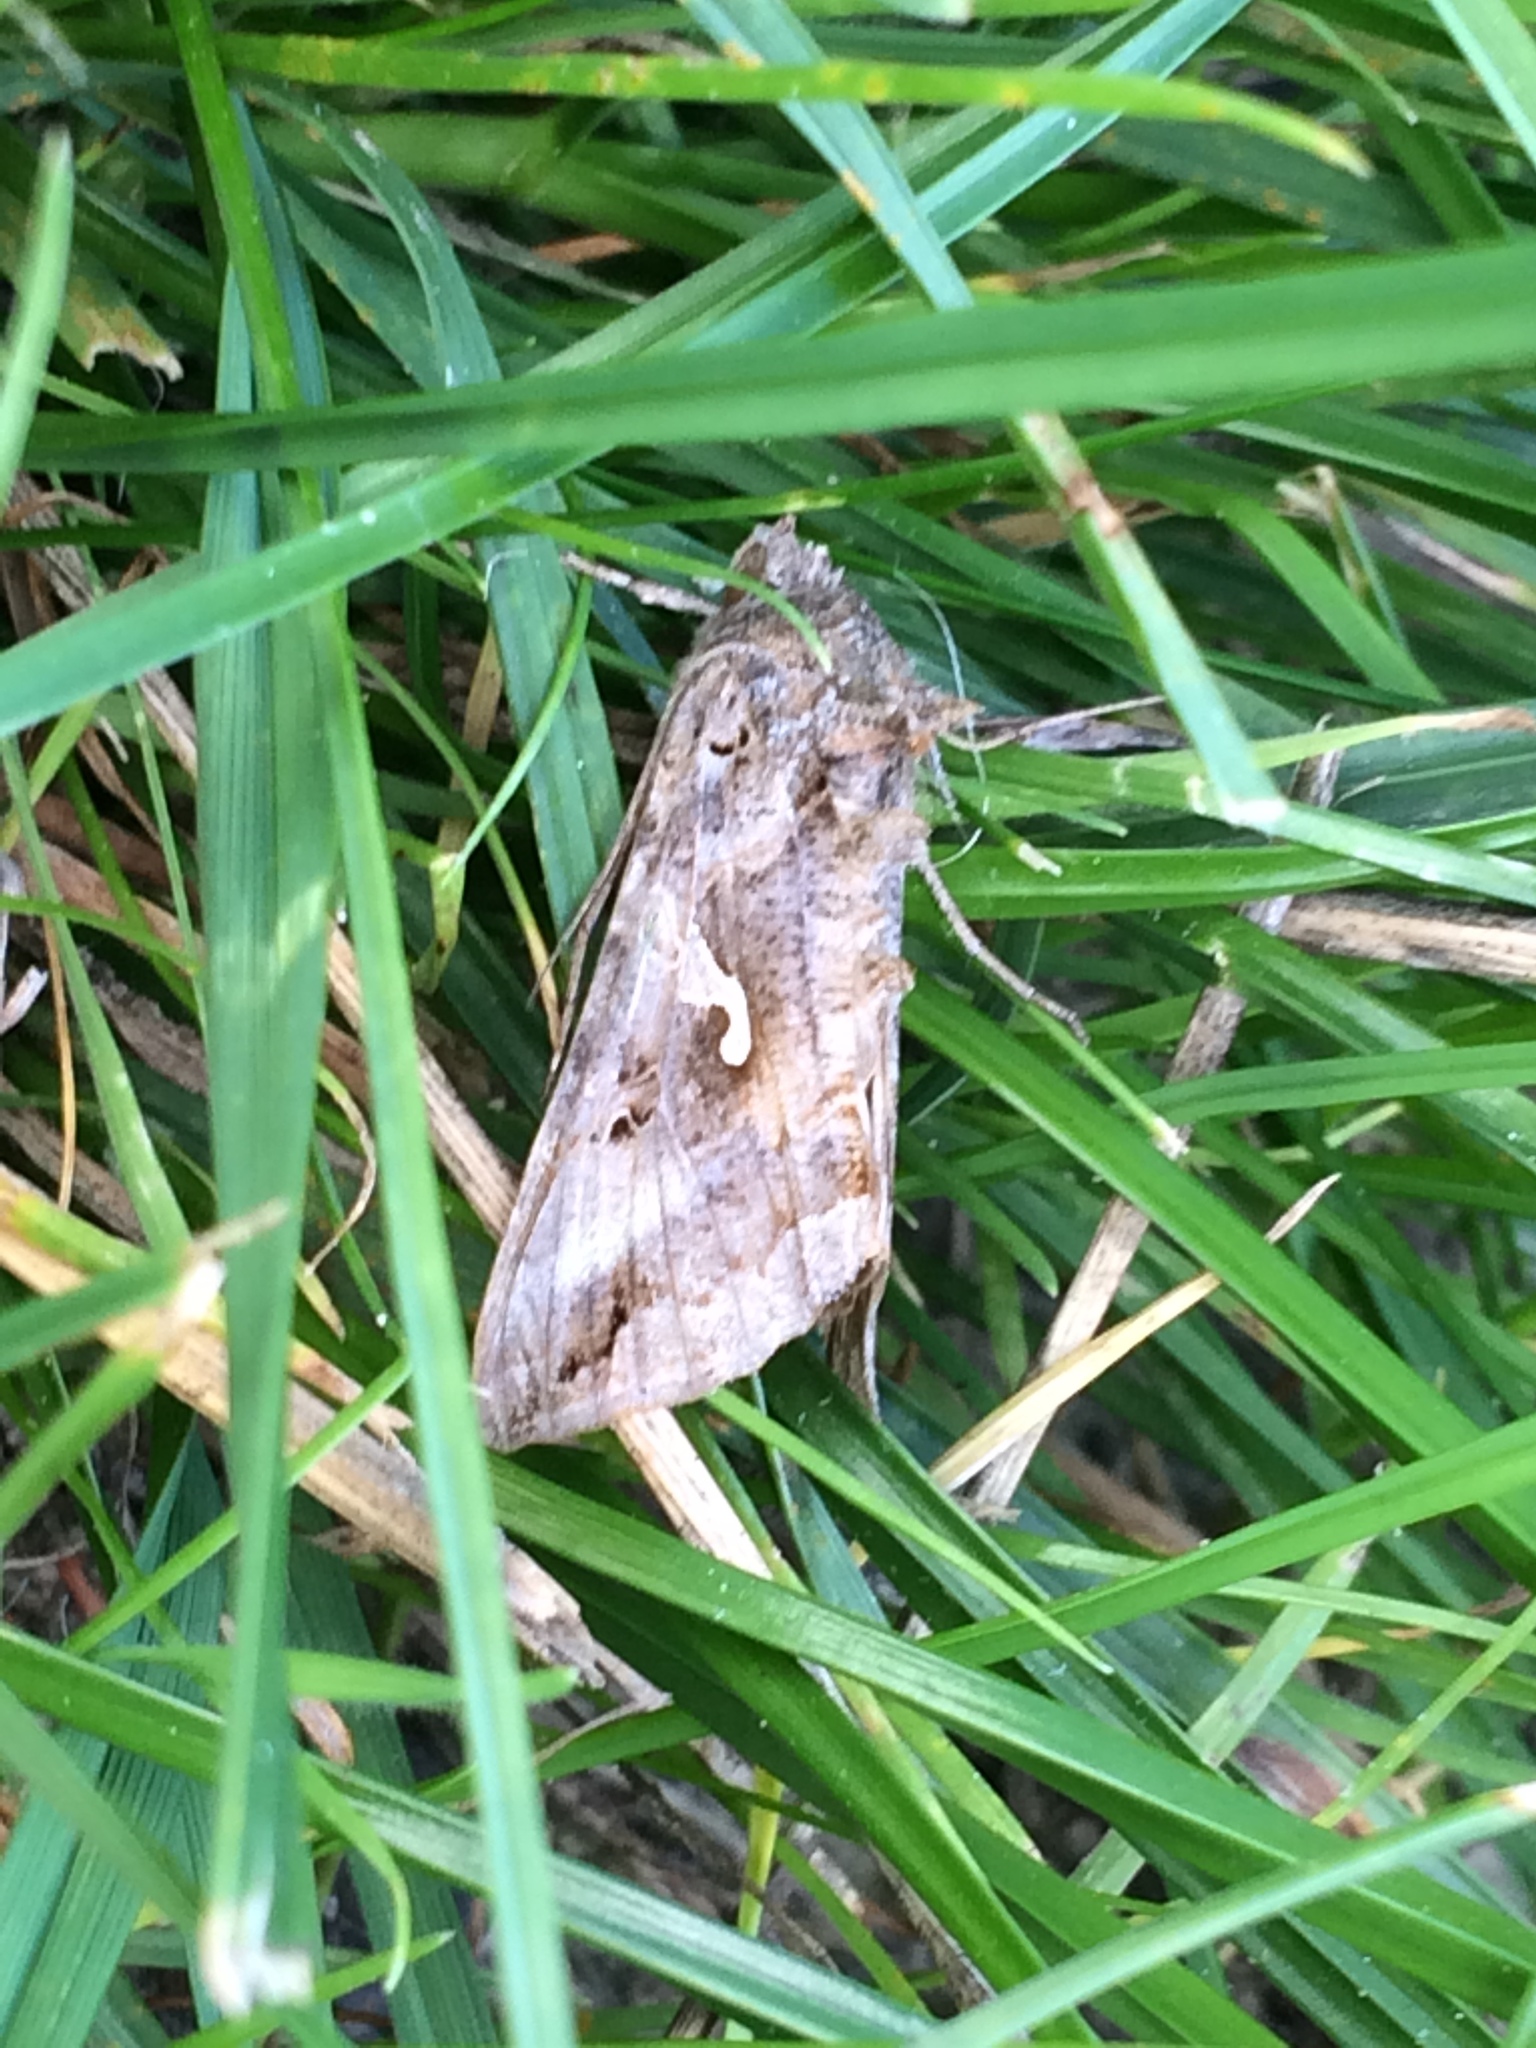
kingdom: Animalia
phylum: Arthropoda
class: Insecta
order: Lepidoptera
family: Noctuidae
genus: Autographa
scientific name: Autographa gamma
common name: Silver y
